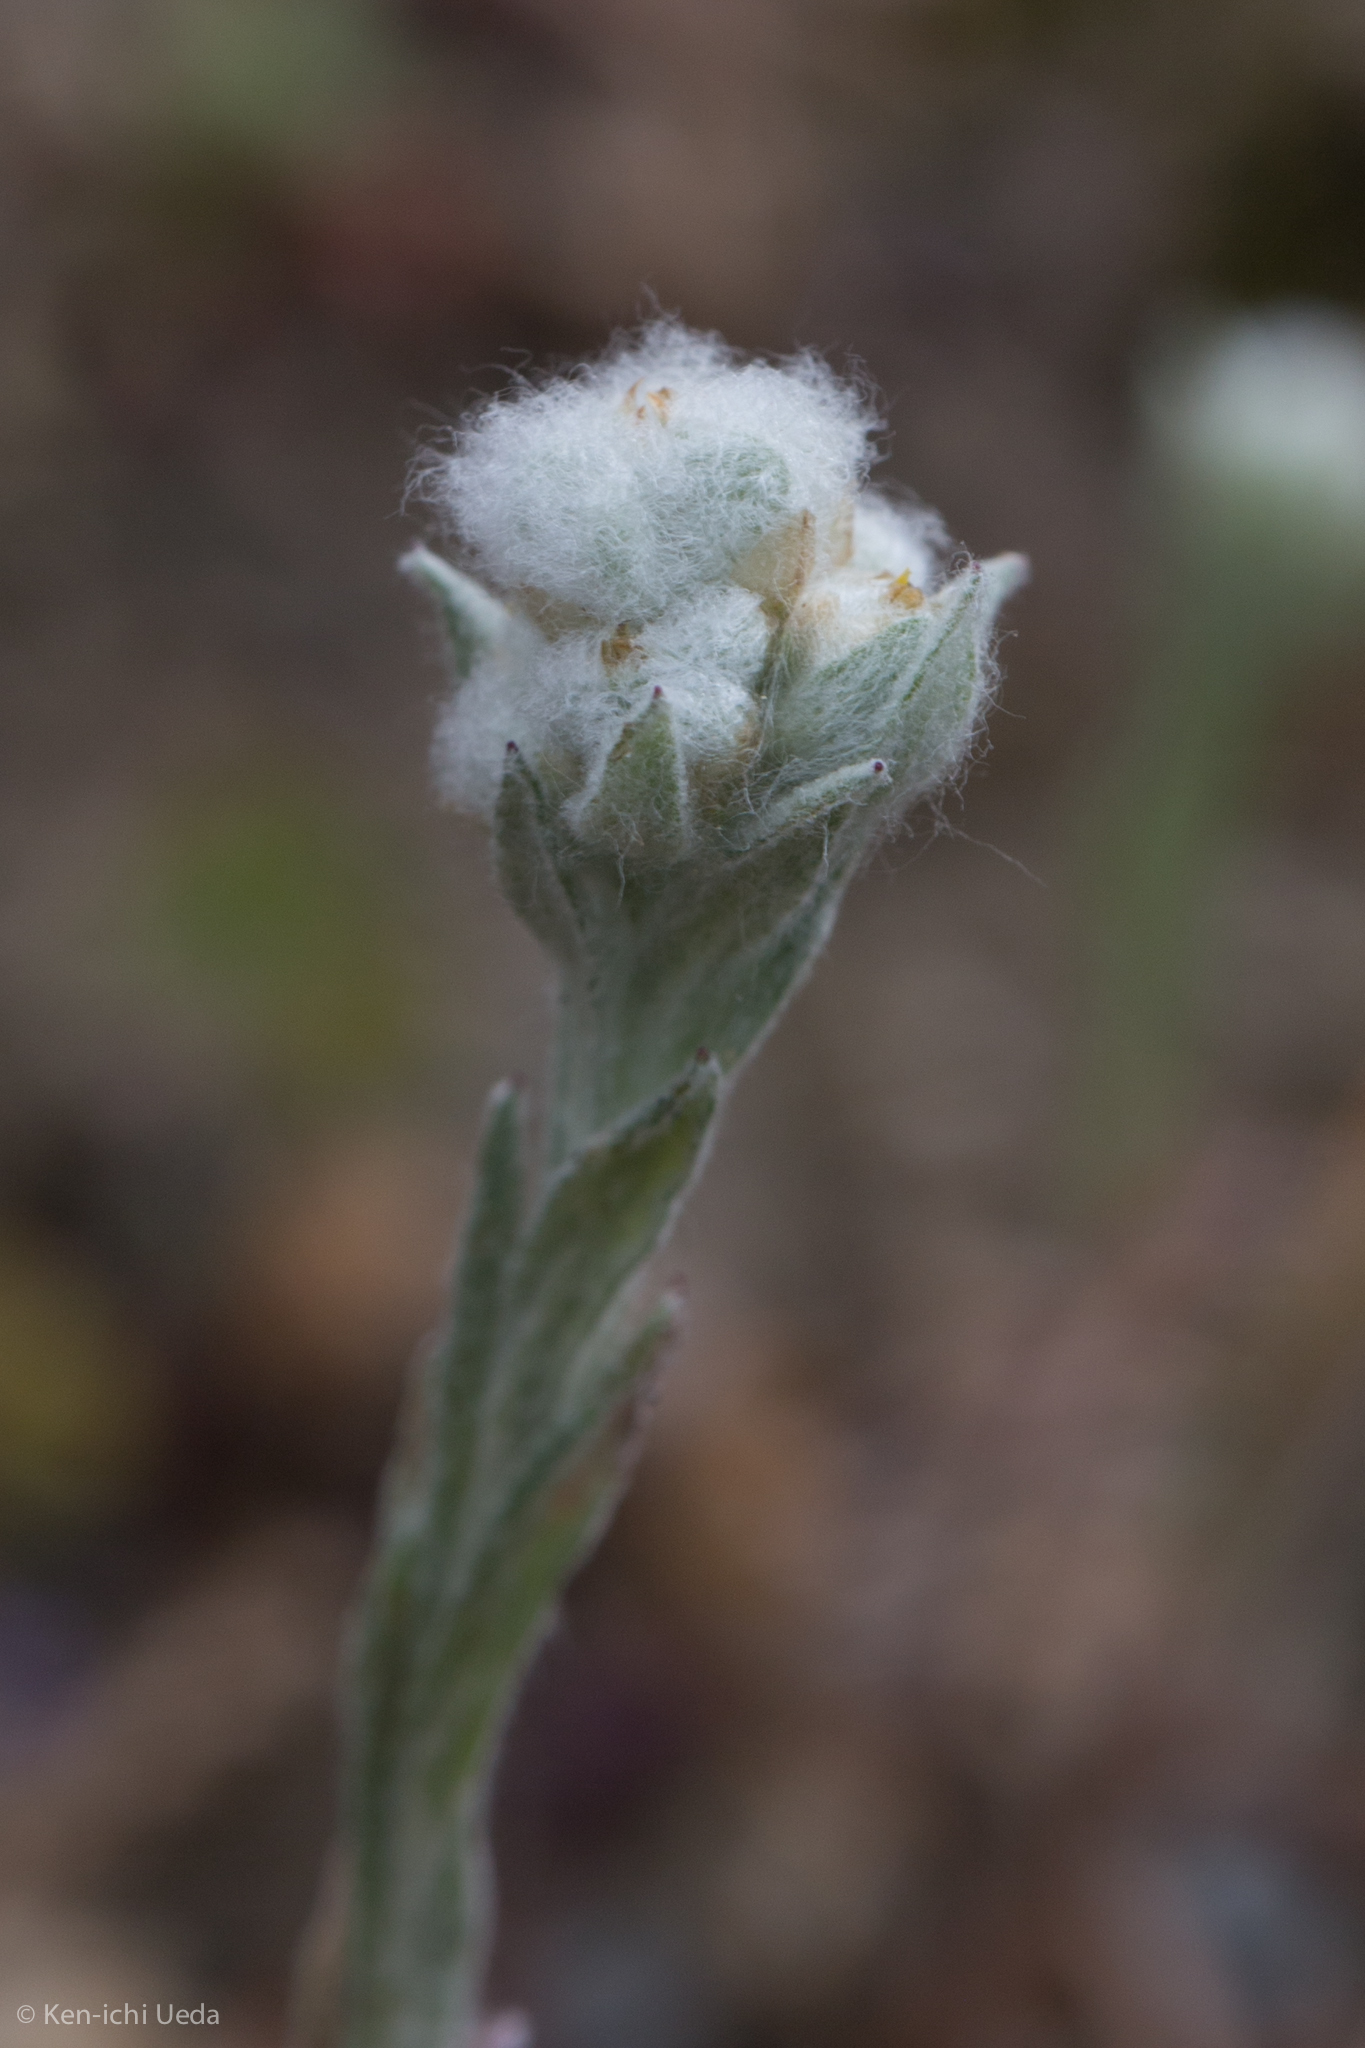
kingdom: Plantae
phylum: Tracheophyta
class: Magnoliopsida
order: Asterales
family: Asteraceae
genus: Bombycilaena
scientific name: Bombycilaena californica
